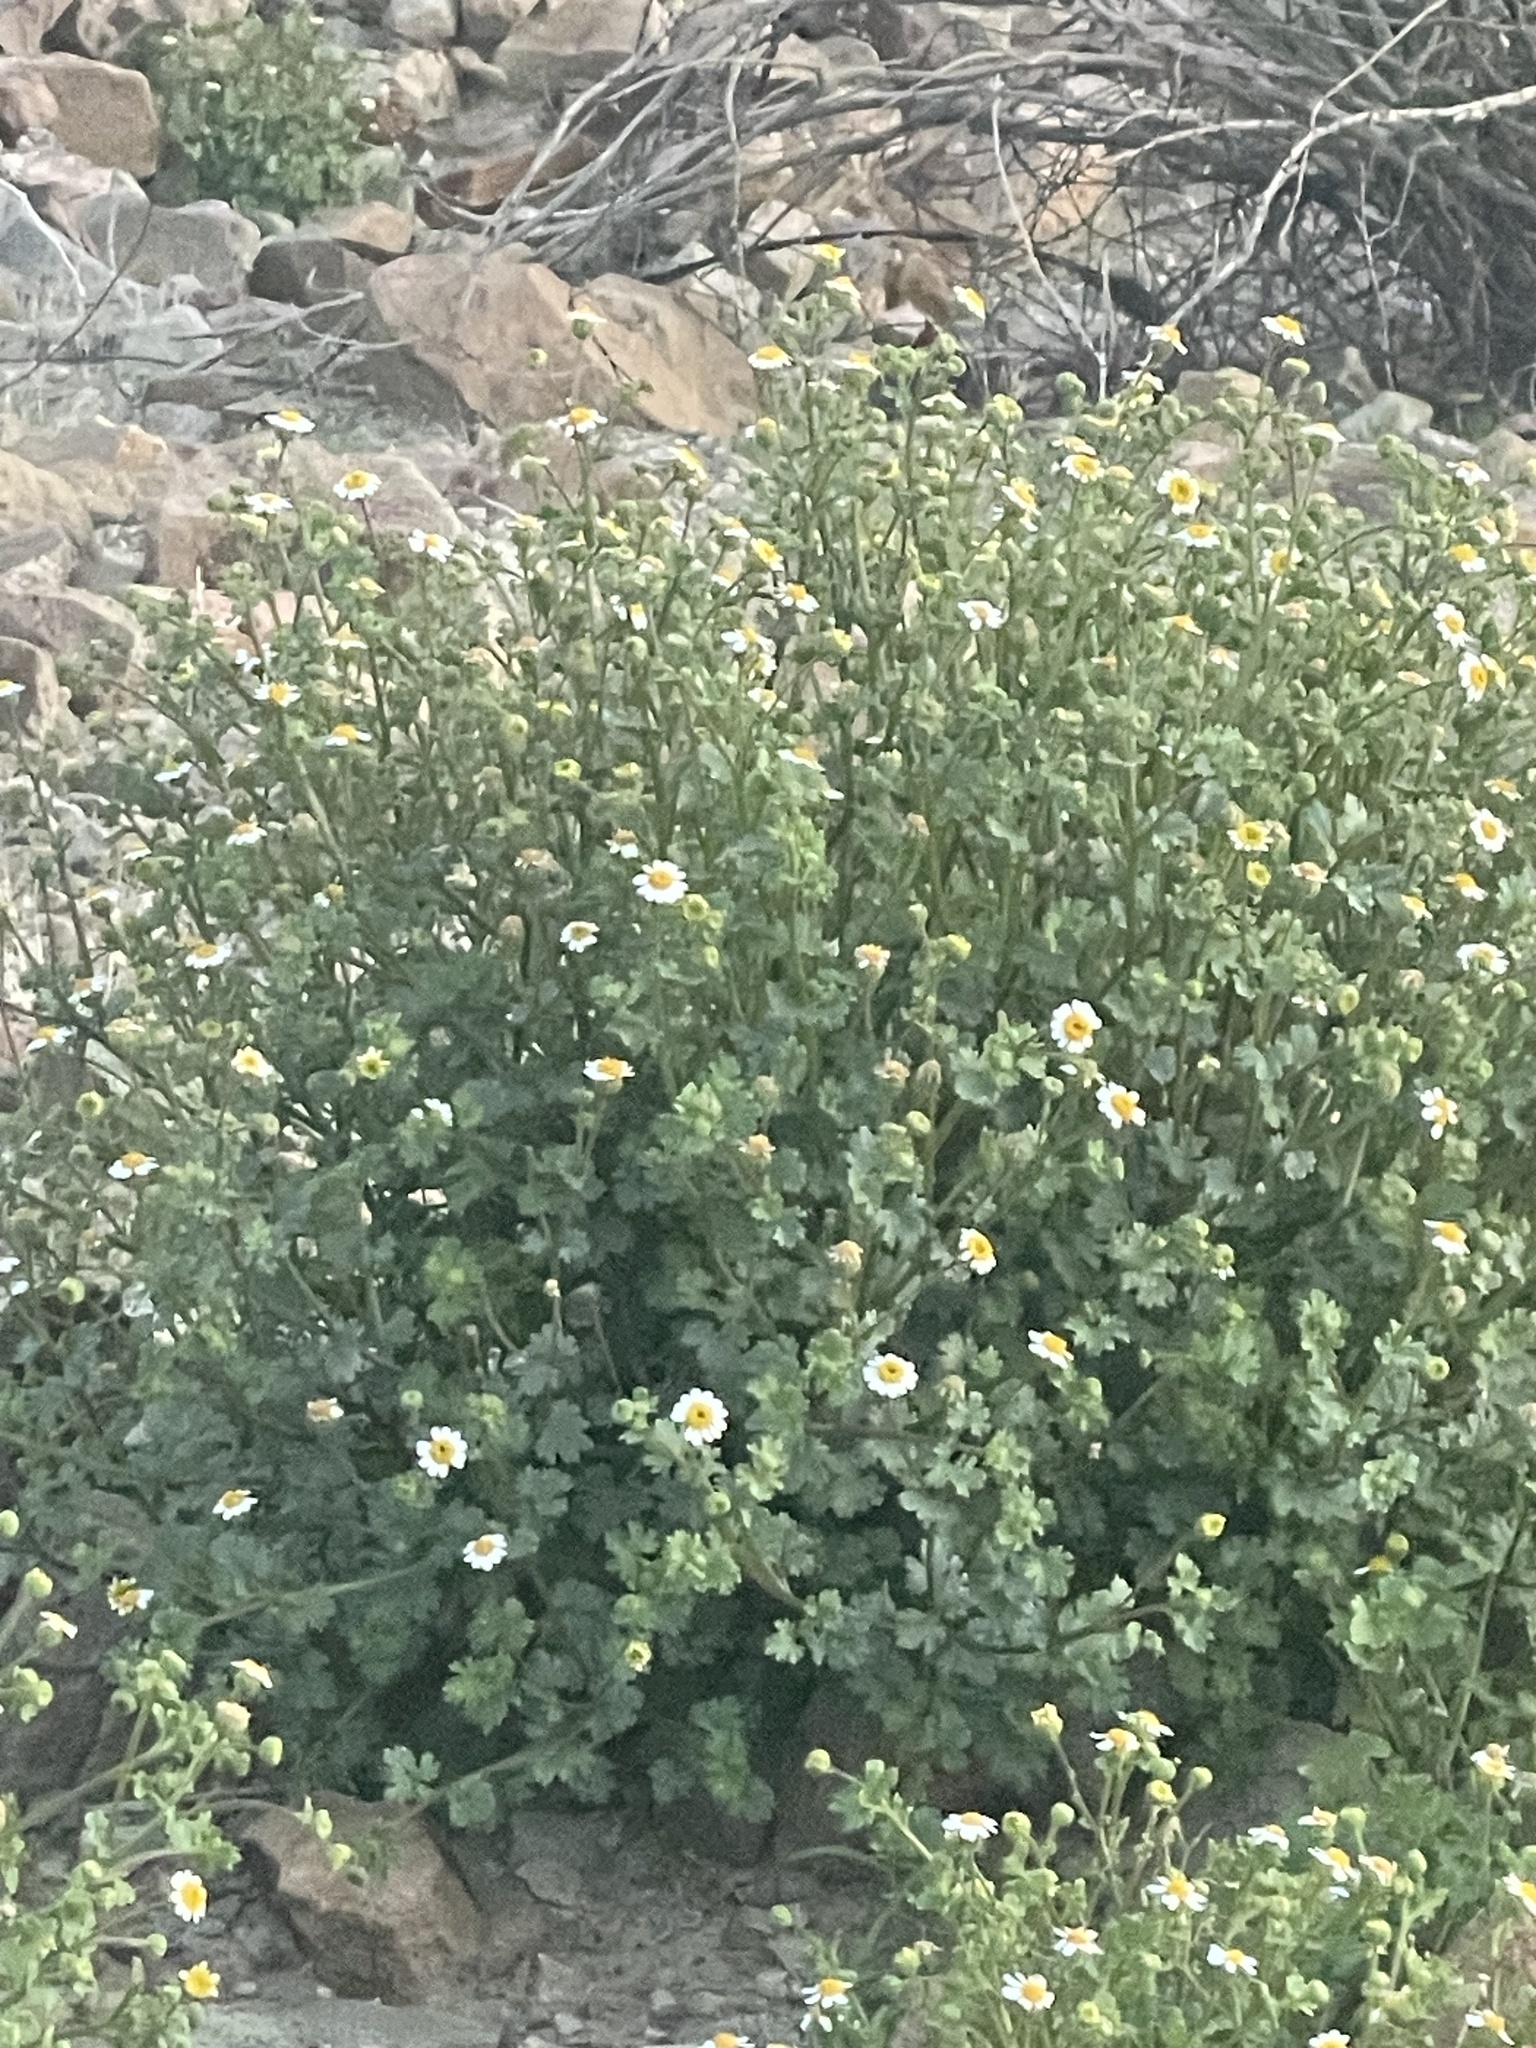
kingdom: Plantae
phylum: Tracheophyta
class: Magnoliopsida
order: Asterales
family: Asteraceae
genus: Laphamia
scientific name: Laphamia emoryi
